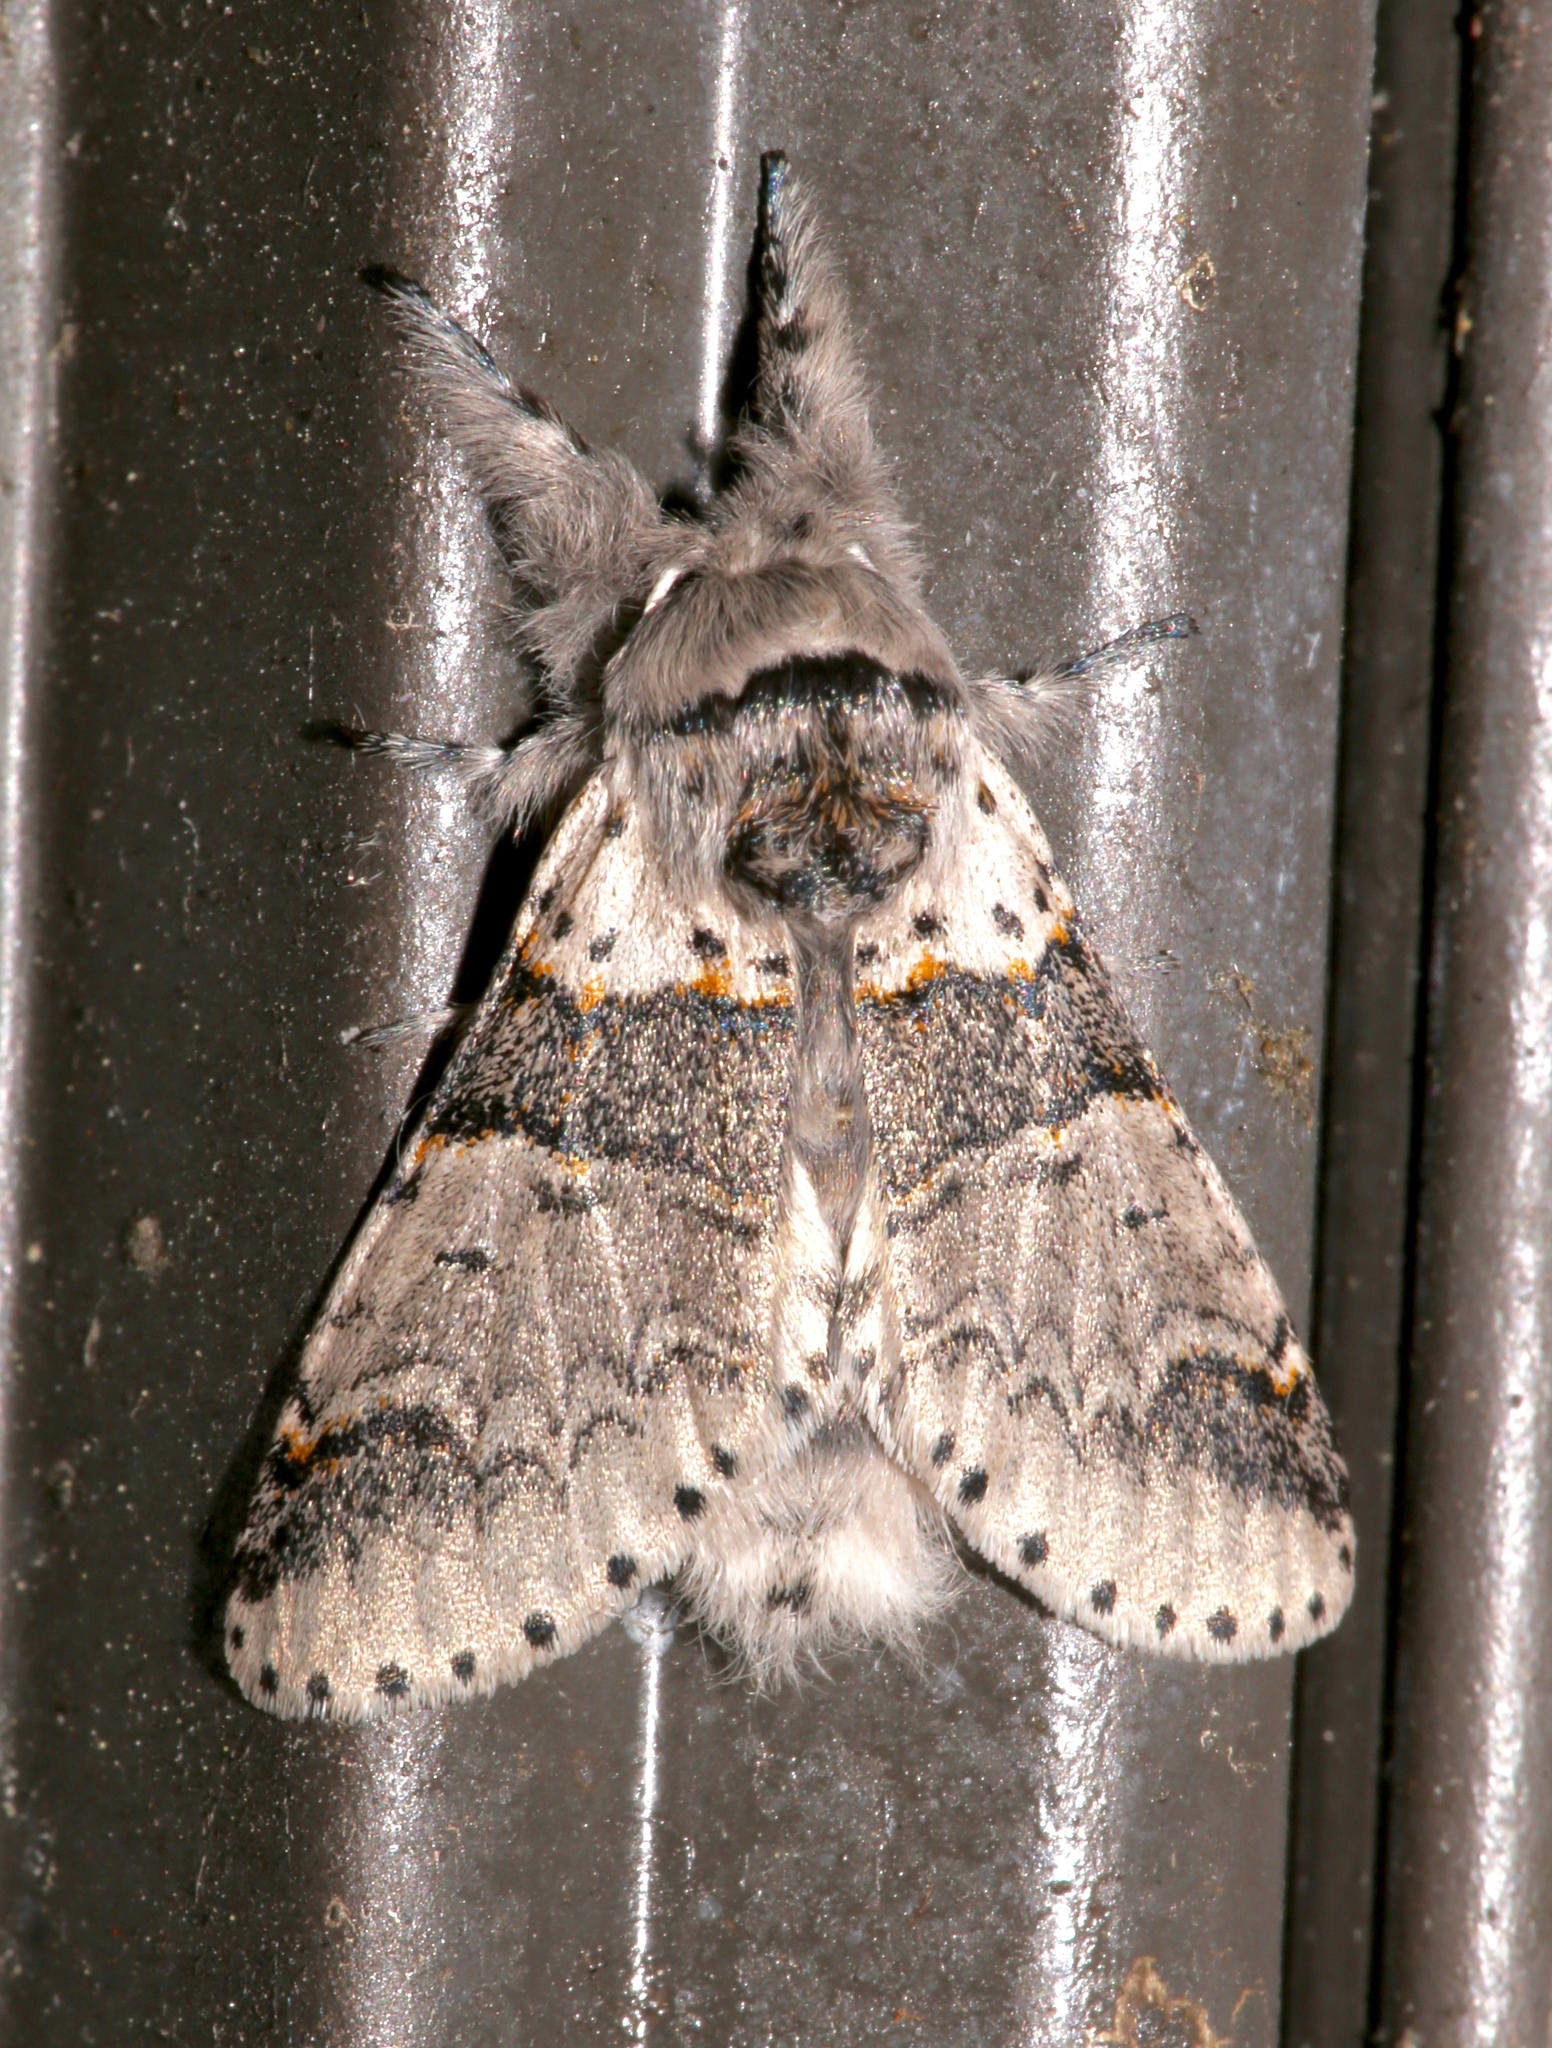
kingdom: Animalia
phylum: Arthropoda
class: Insecta
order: Lepidoptera
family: Notodontidae
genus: Furcula
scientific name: Furcula occidentalis
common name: Western furcula moth
